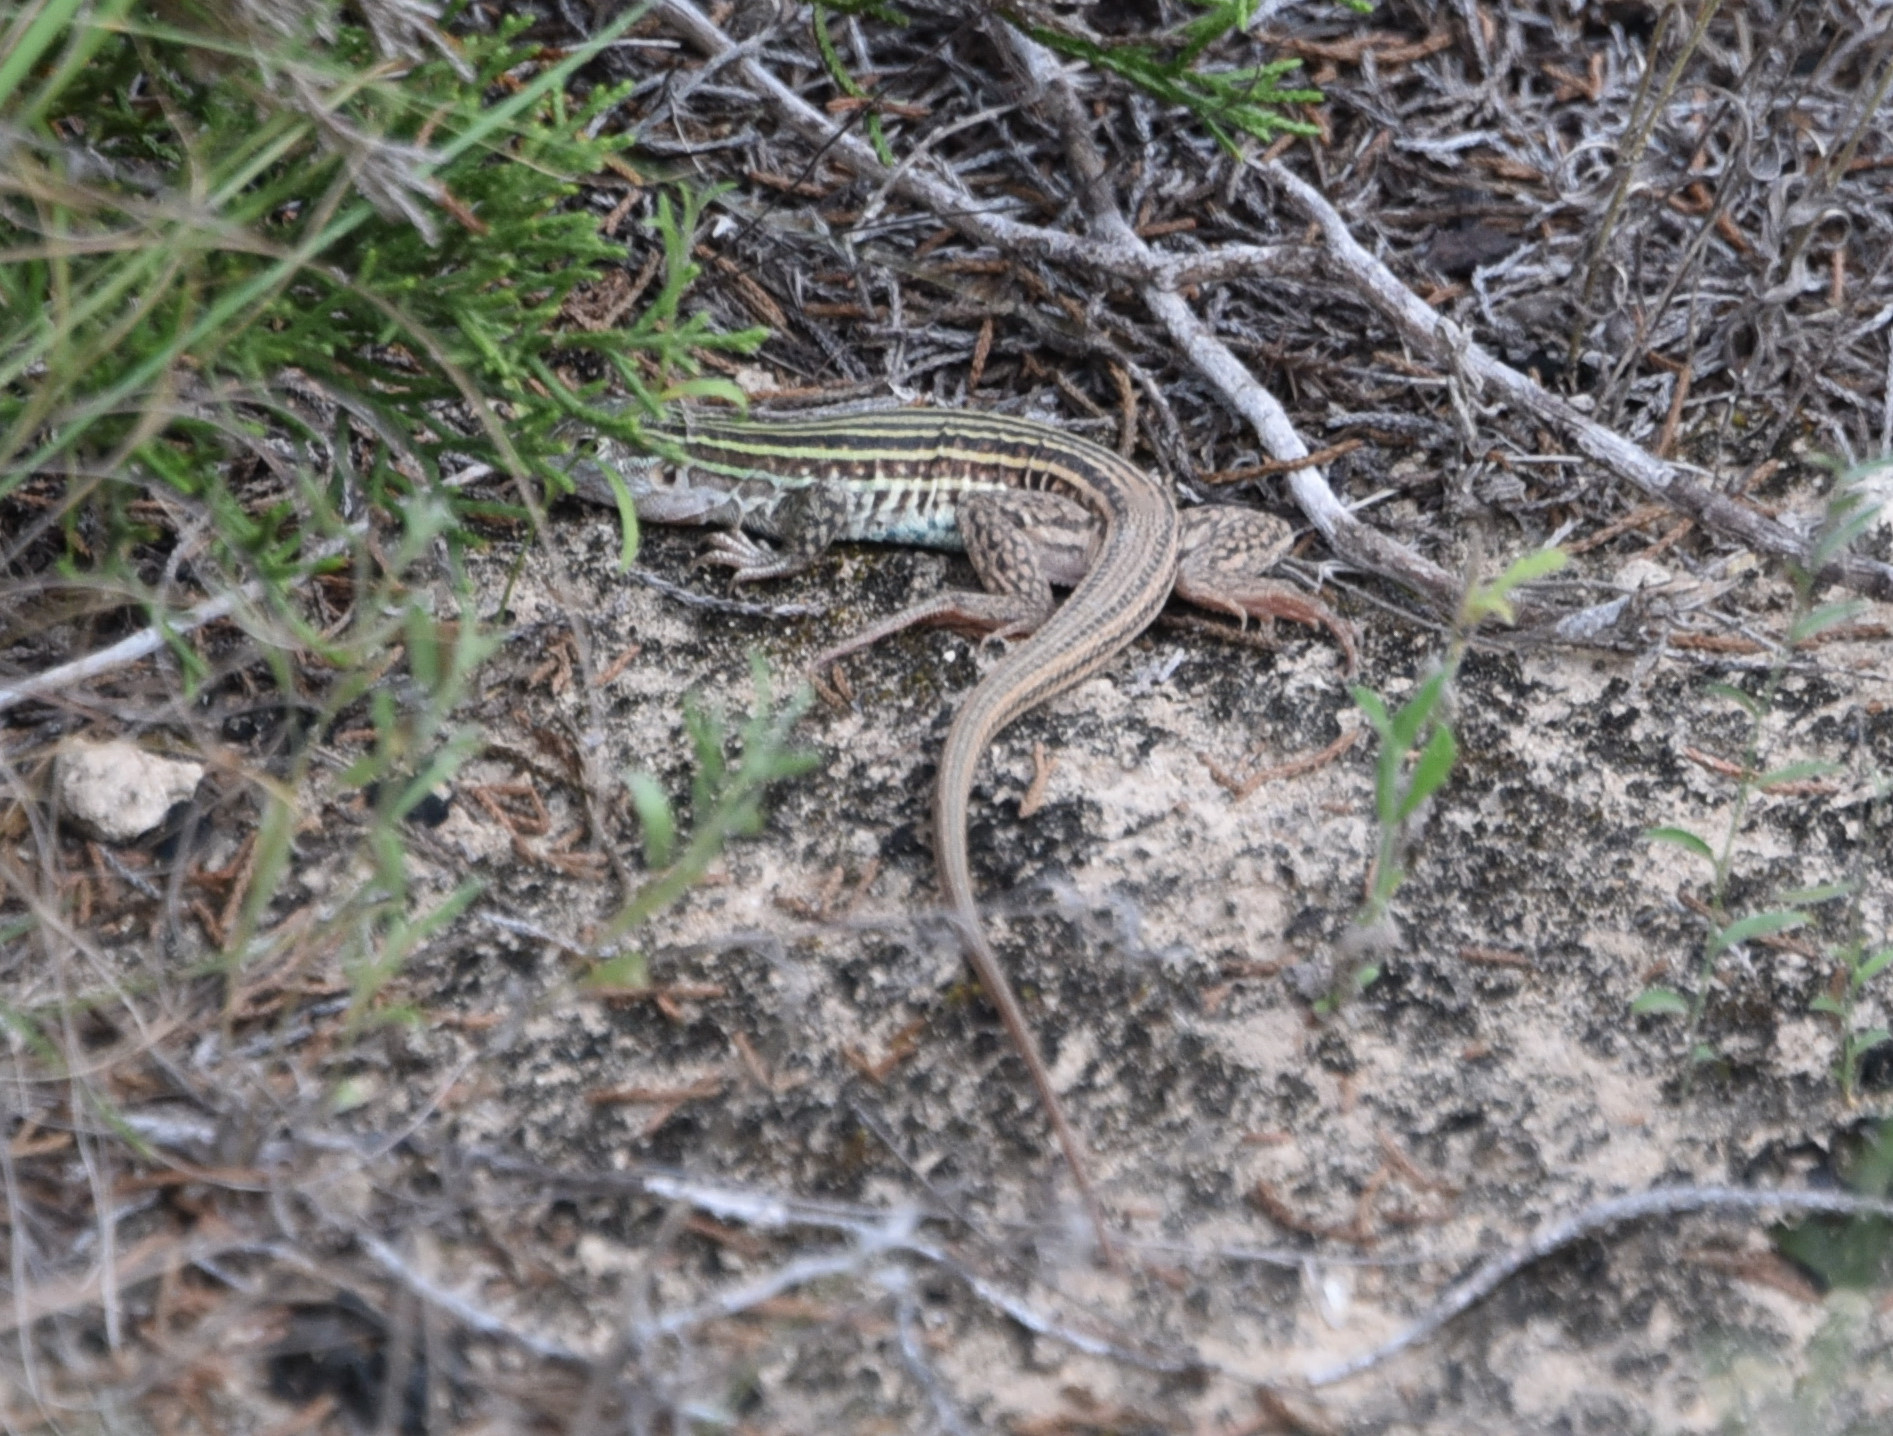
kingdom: Animalia
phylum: Chordata
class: Squamata
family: Teiidae
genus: Aspidoscelis
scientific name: Aspidoscelis gularis
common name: Eastern spotted whiptail
